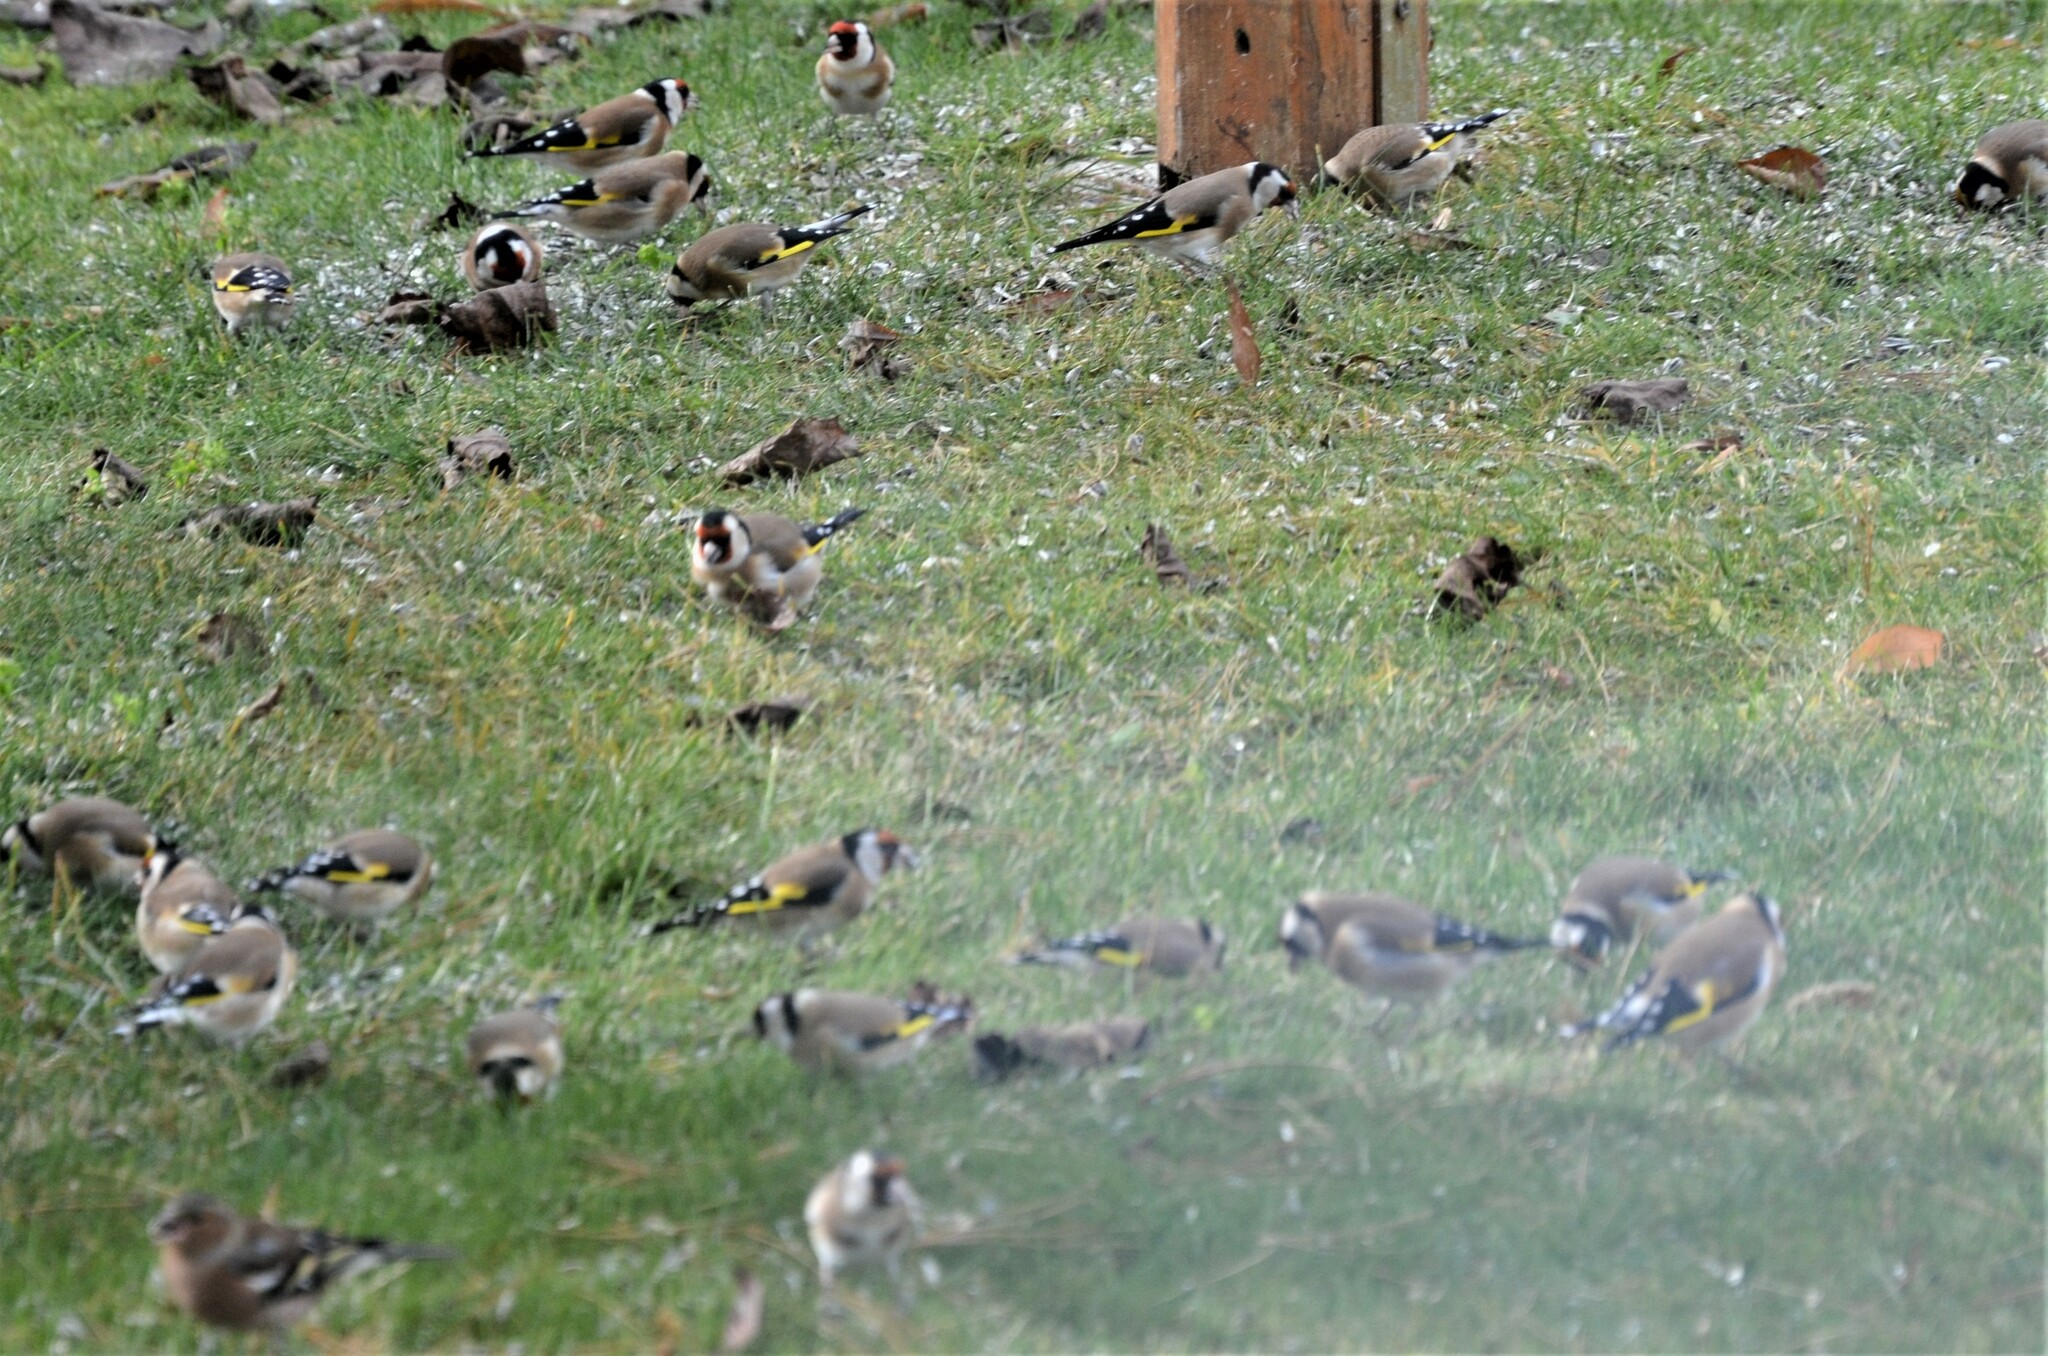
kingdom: Animalia
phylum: Chordata
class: Aves
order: Passeriformes
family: Fringillidae
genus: Carduelis
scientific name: Carduelis carduelis
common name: European goldfinch
